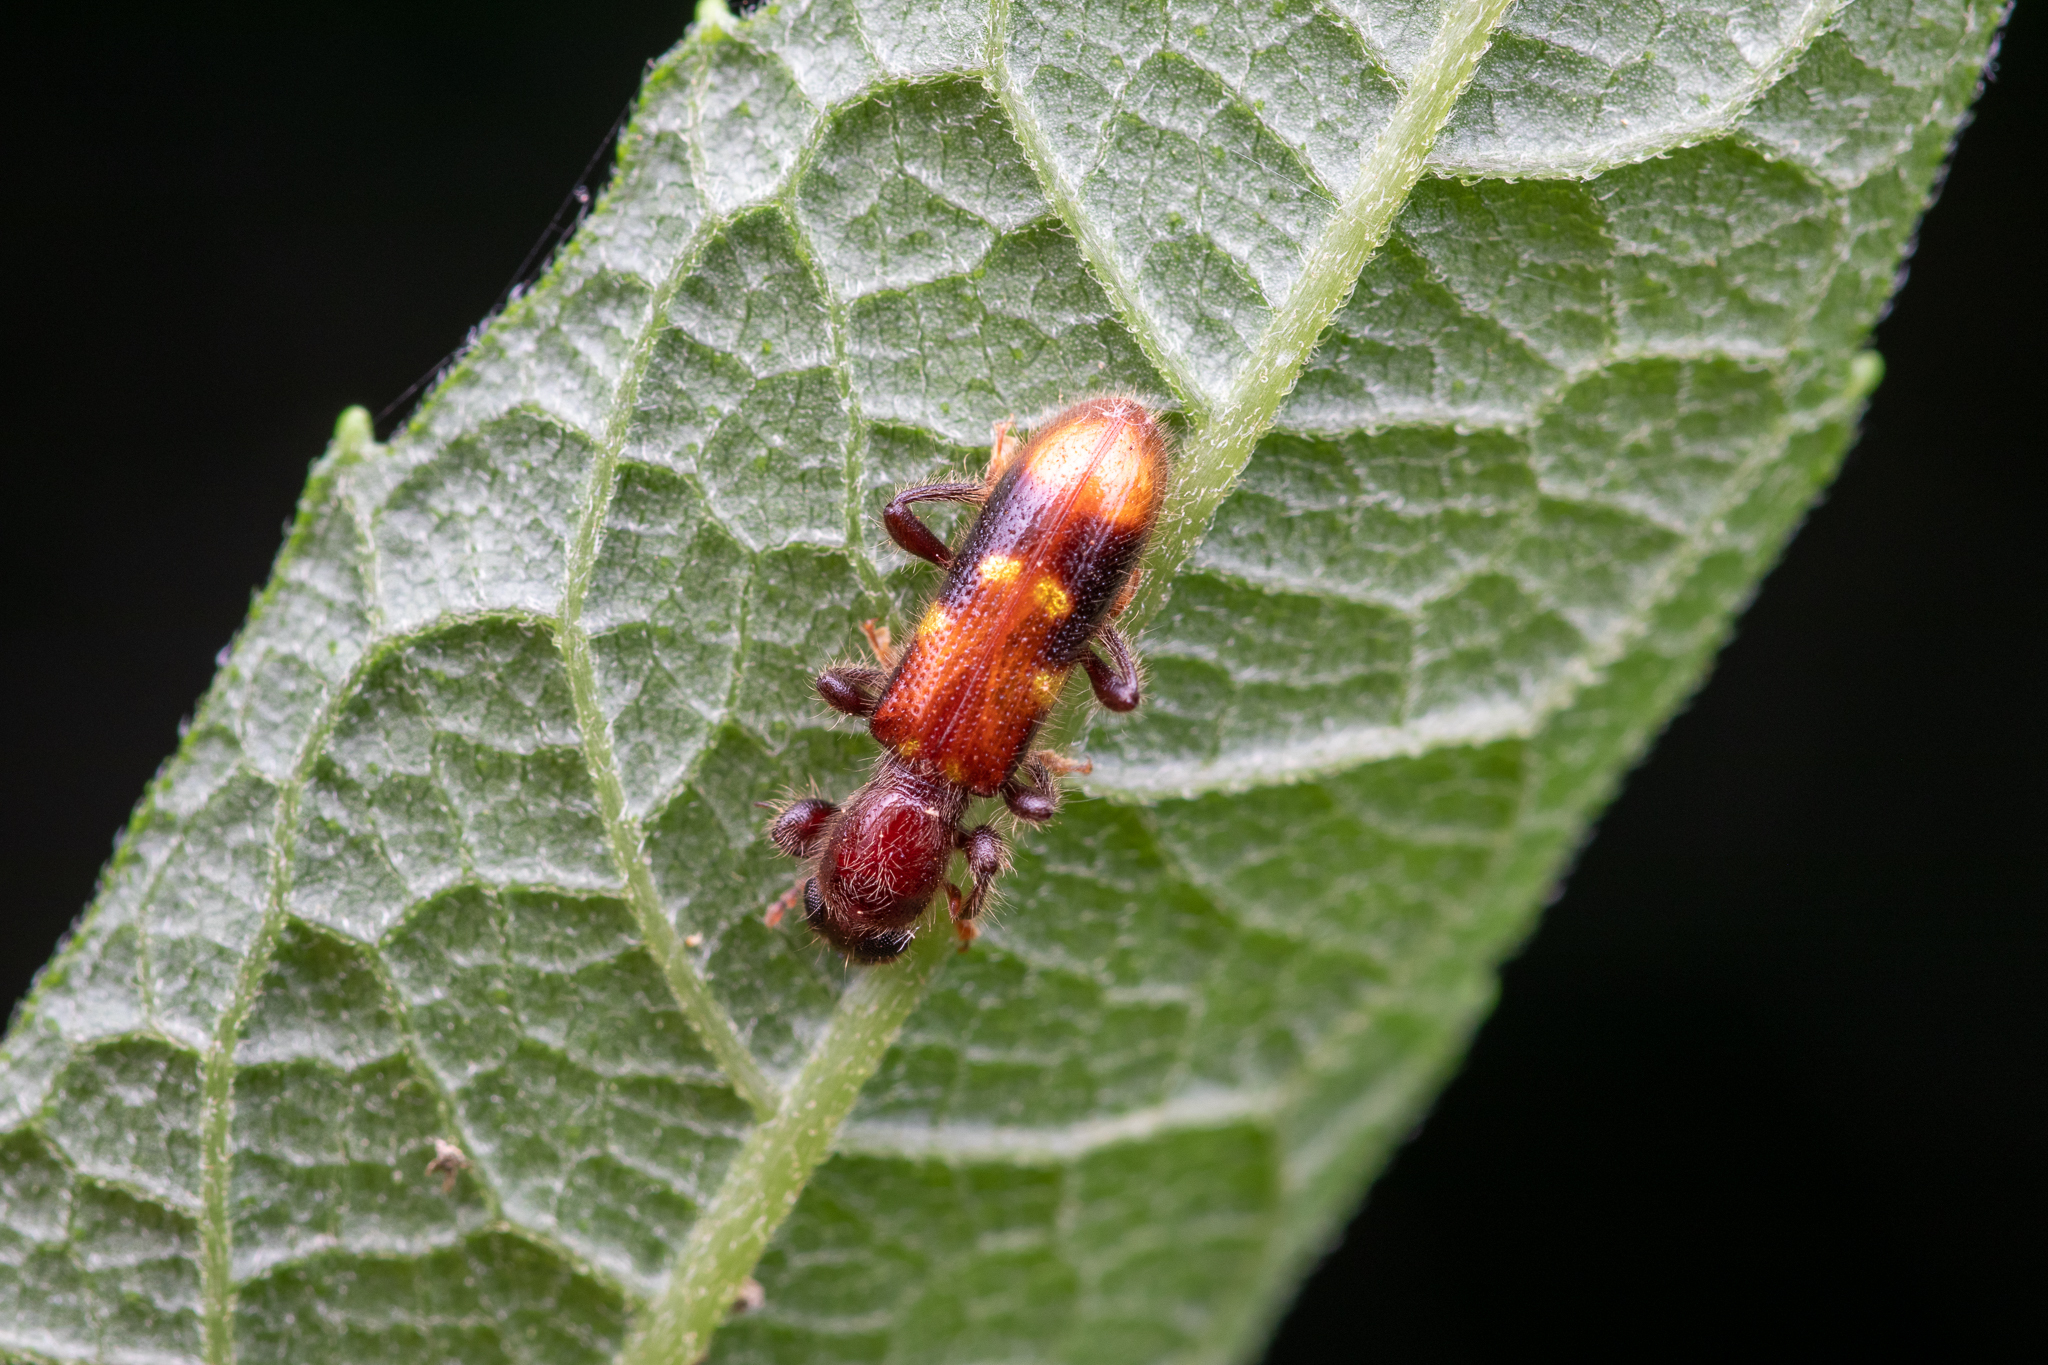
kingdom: Animalia
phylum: Arthropoda
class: Insecta
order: Coleoptera
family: Cleridae
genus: Priocera
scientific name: Priocera castanea
